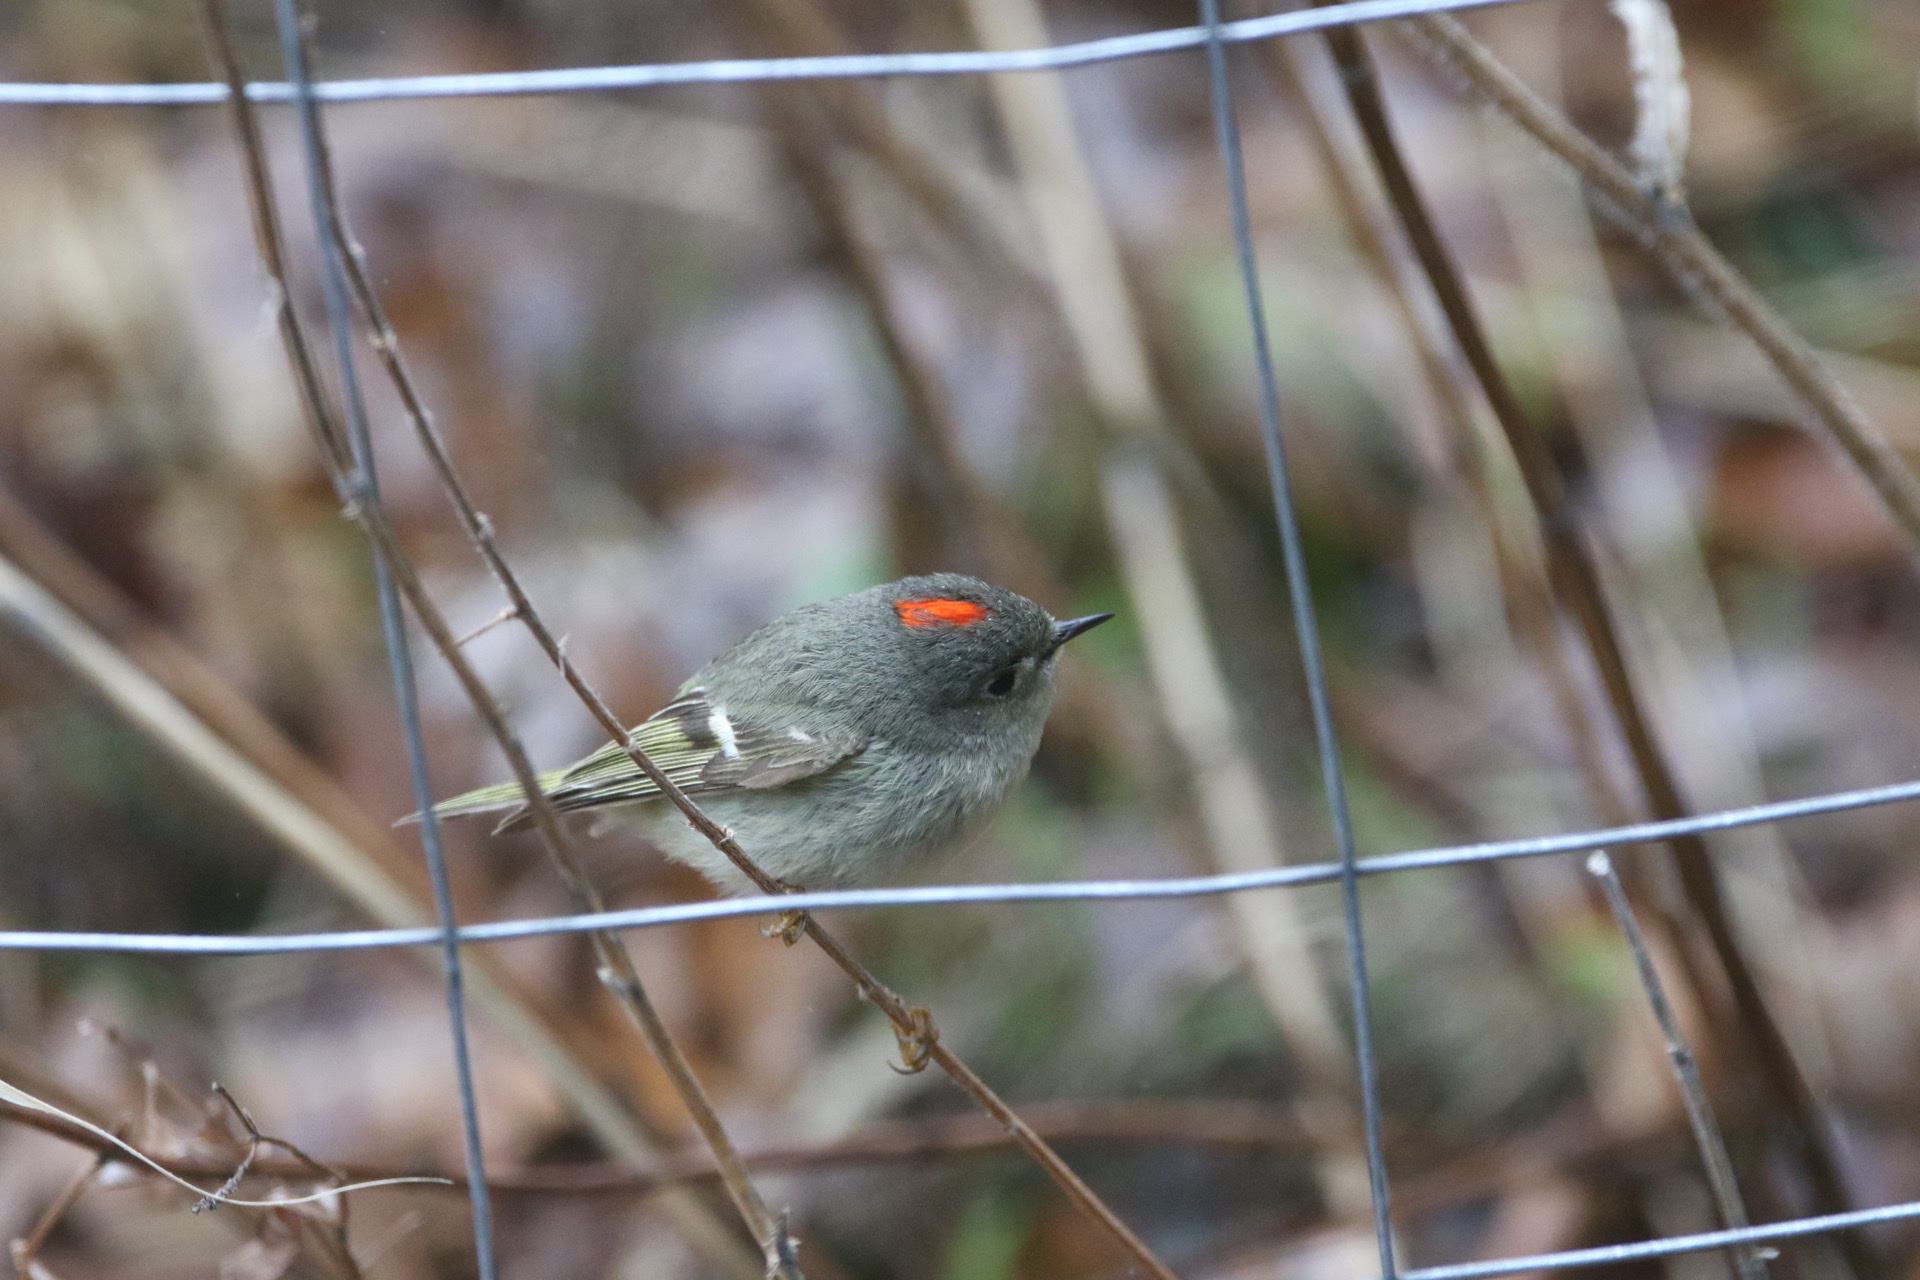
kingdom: Animalia
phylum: Chordata
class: Aves
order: Passeriformes
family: Regulidae
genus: Regulus
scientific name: Regulus calendula
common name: Ruby-crowned kinglet
